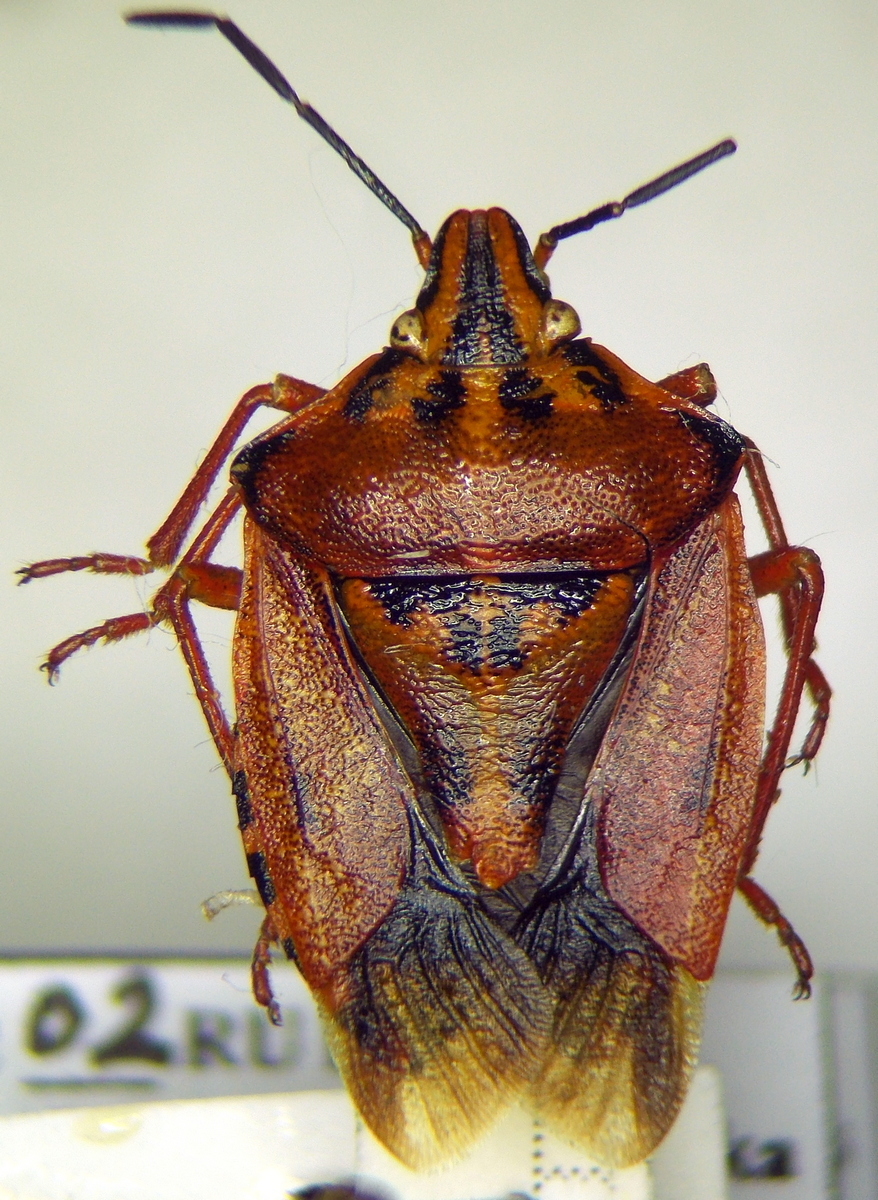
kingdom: Animalia
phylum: Arthropoda
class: Insecta
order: Hemiptera
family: Pentatomidae
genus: Carpocoris
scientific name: Carpocoris mediterraneus
